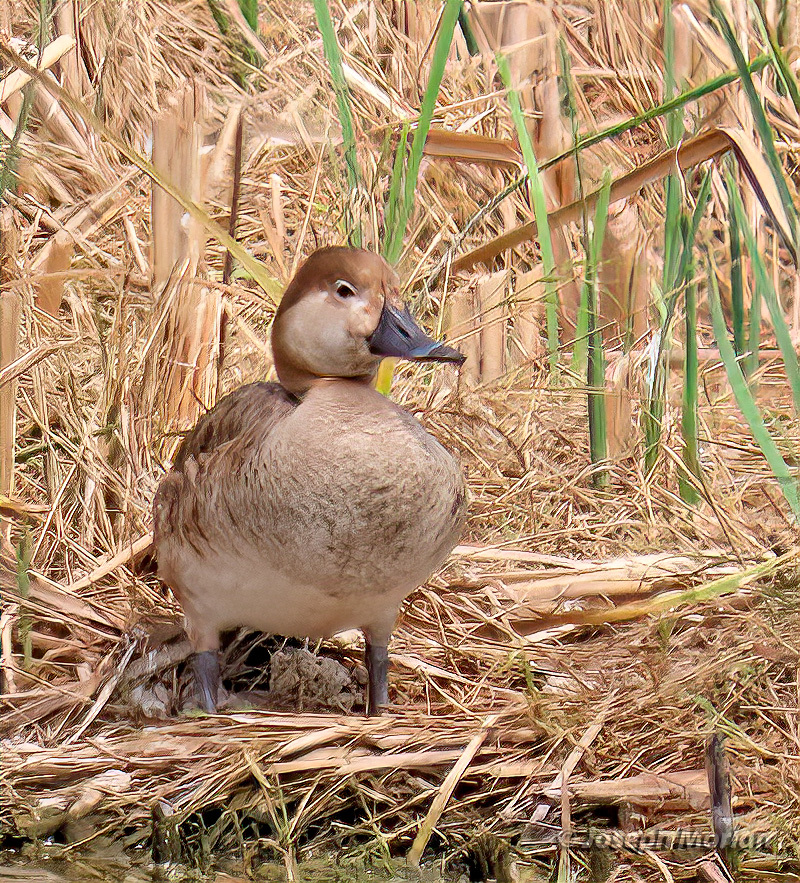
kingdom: Animalia
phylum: Chordata
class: Aves
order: Anseriformes
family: Anatidae
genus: Aythya
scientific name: Aythya americana
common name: Redhead
